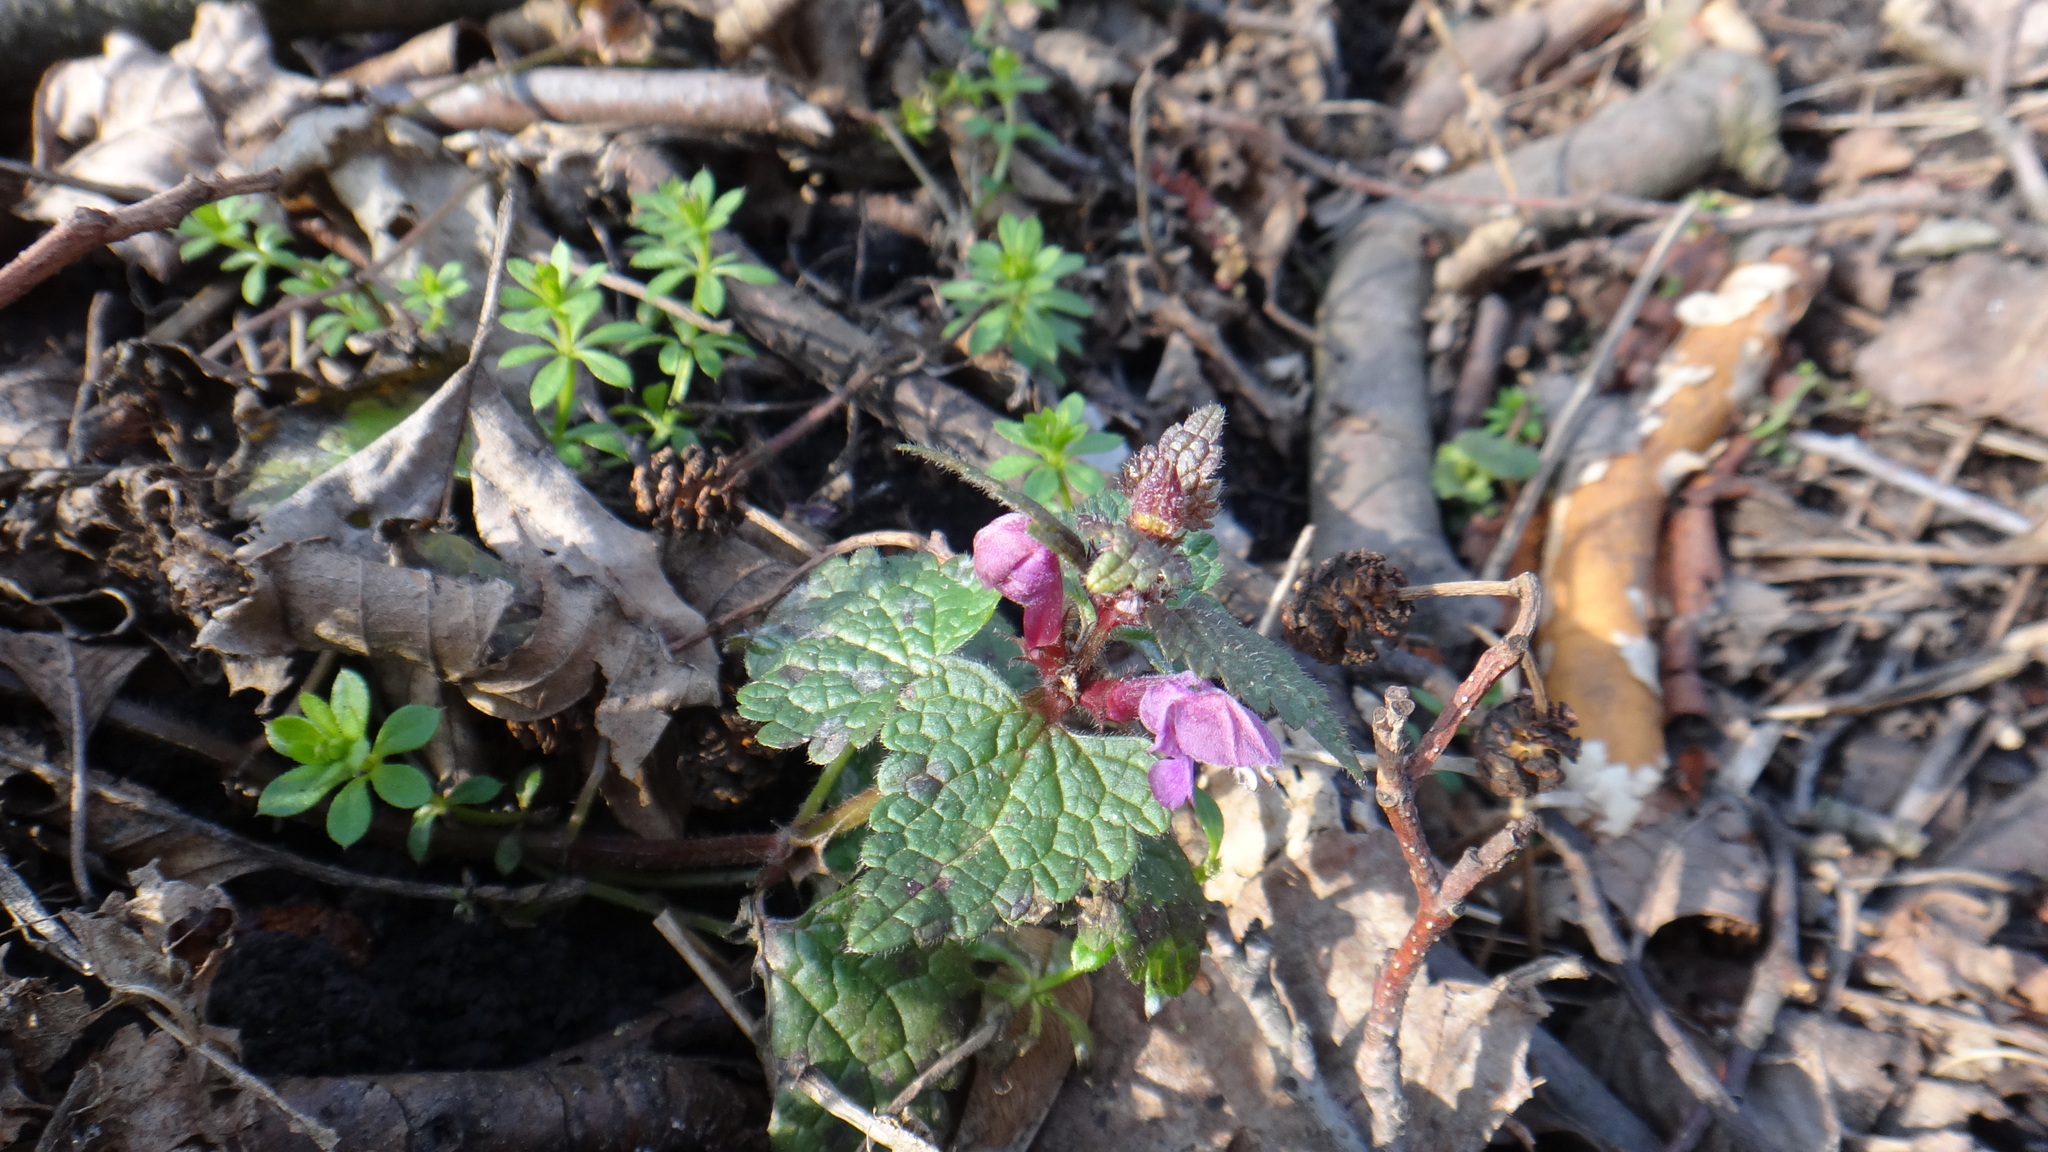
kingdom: Plantae
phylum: Tracheophyta
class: Magnoliopsida
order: Lamiales
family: Lamiaceae
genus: Lamium
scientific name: Lamium maculatum
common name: Spotted dead-nettle
